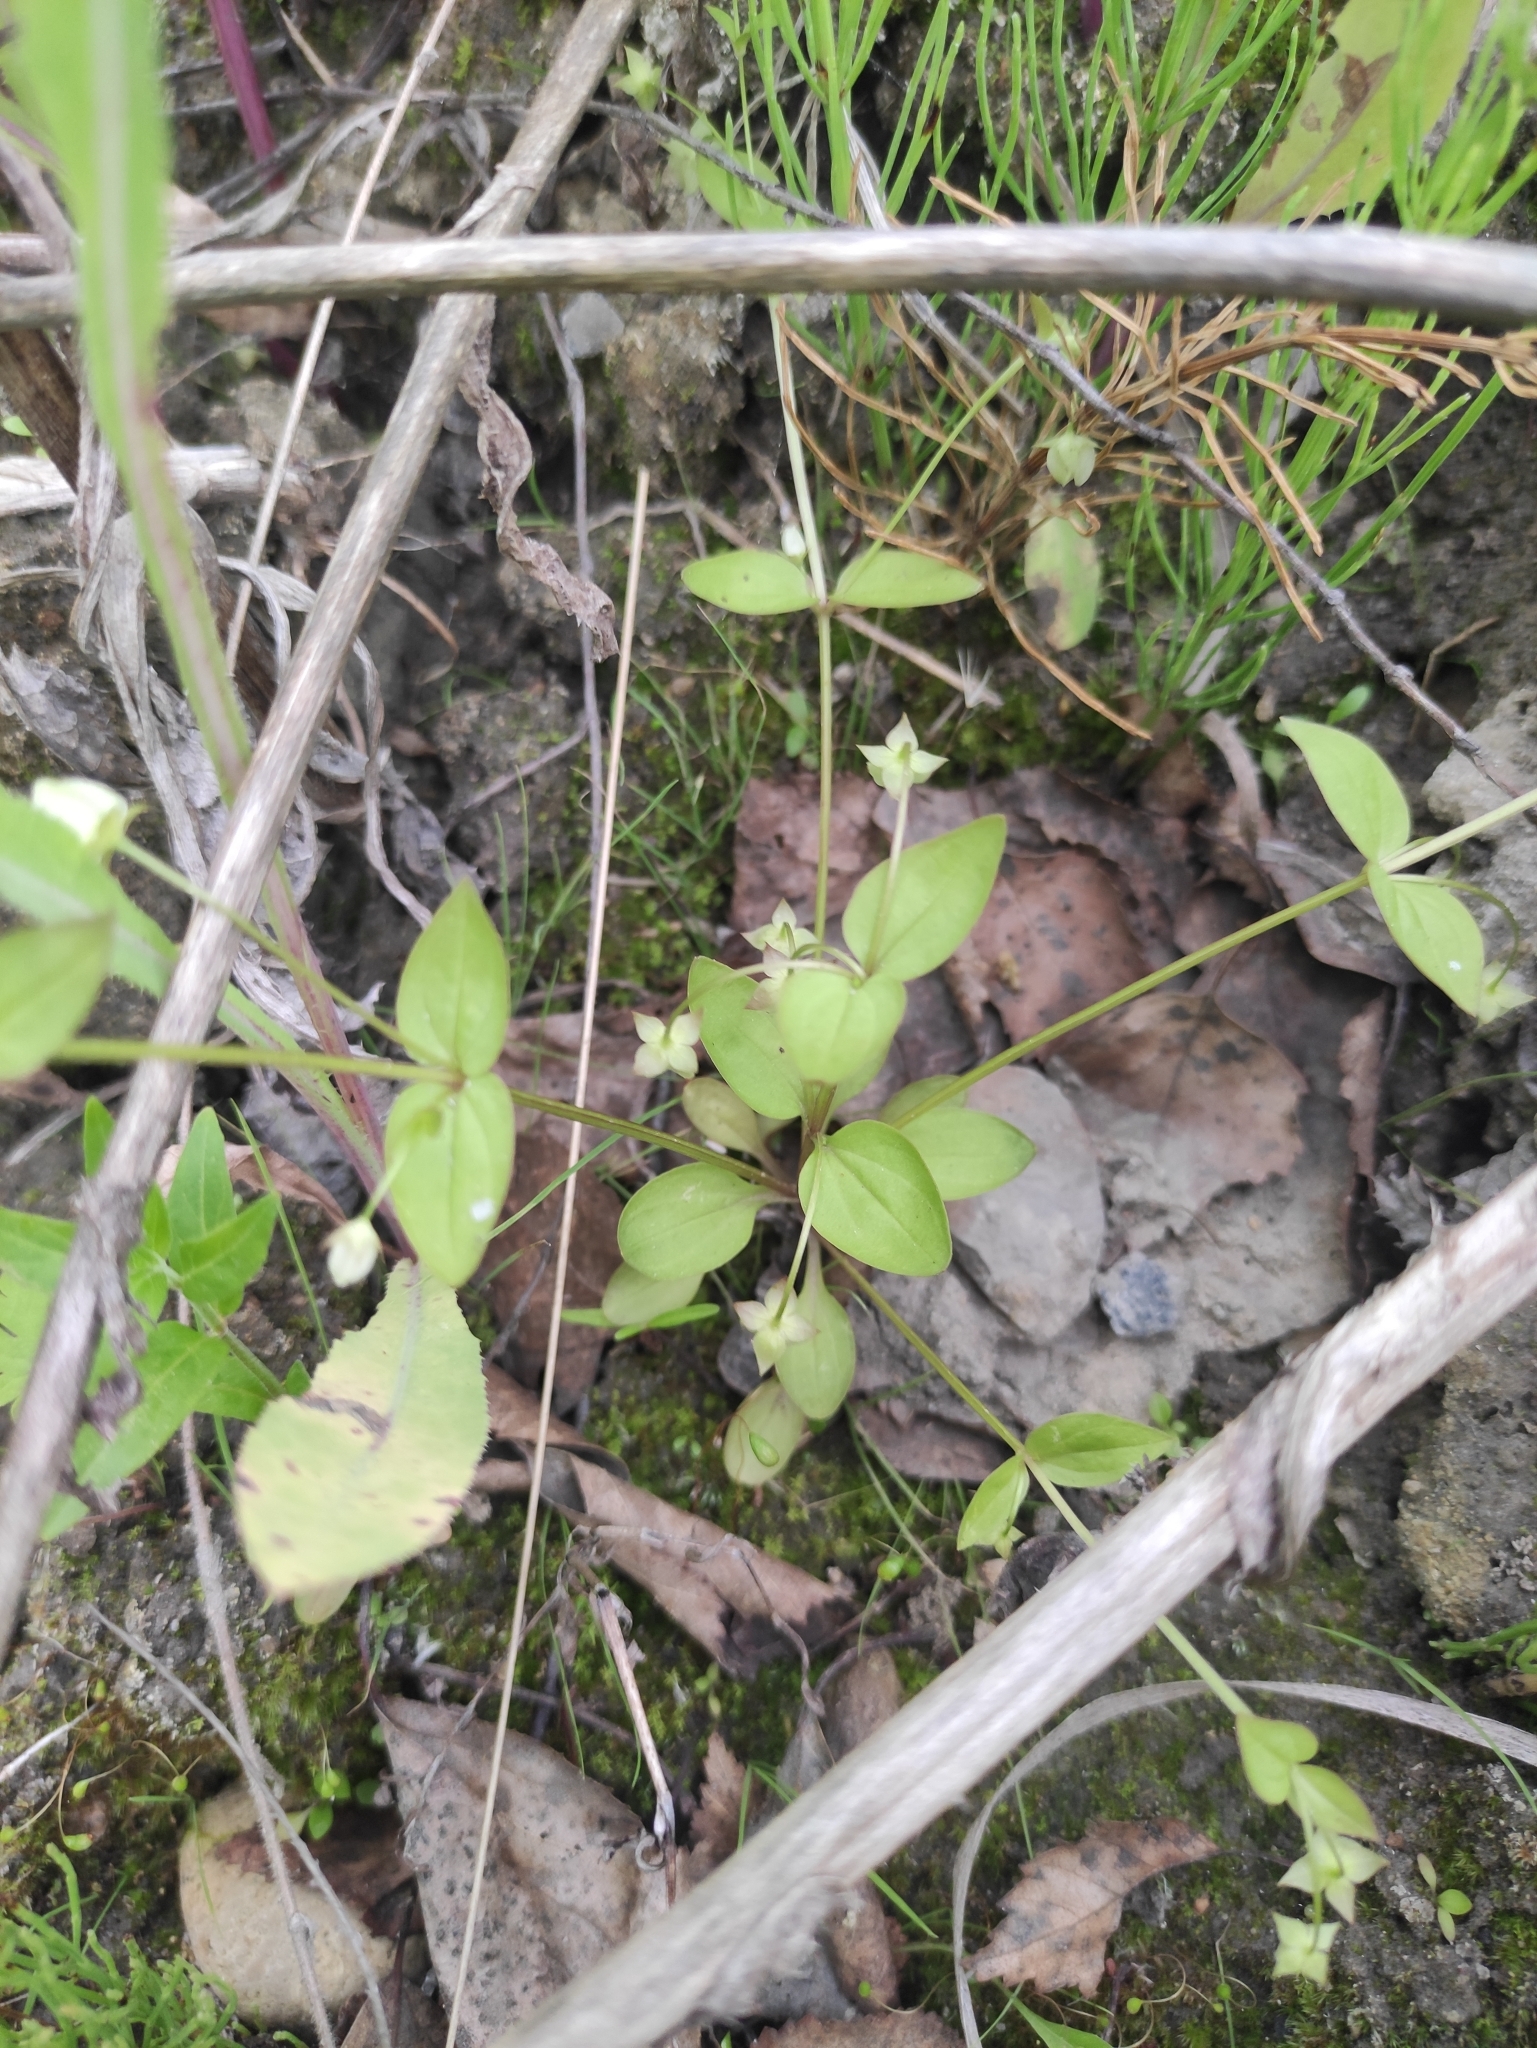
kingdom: Plantae
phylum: Tracheophyta
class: Magnoliopsida
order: Gentianales
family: Gentianaceae
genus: Swertia
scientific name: Swertia dichotoma
